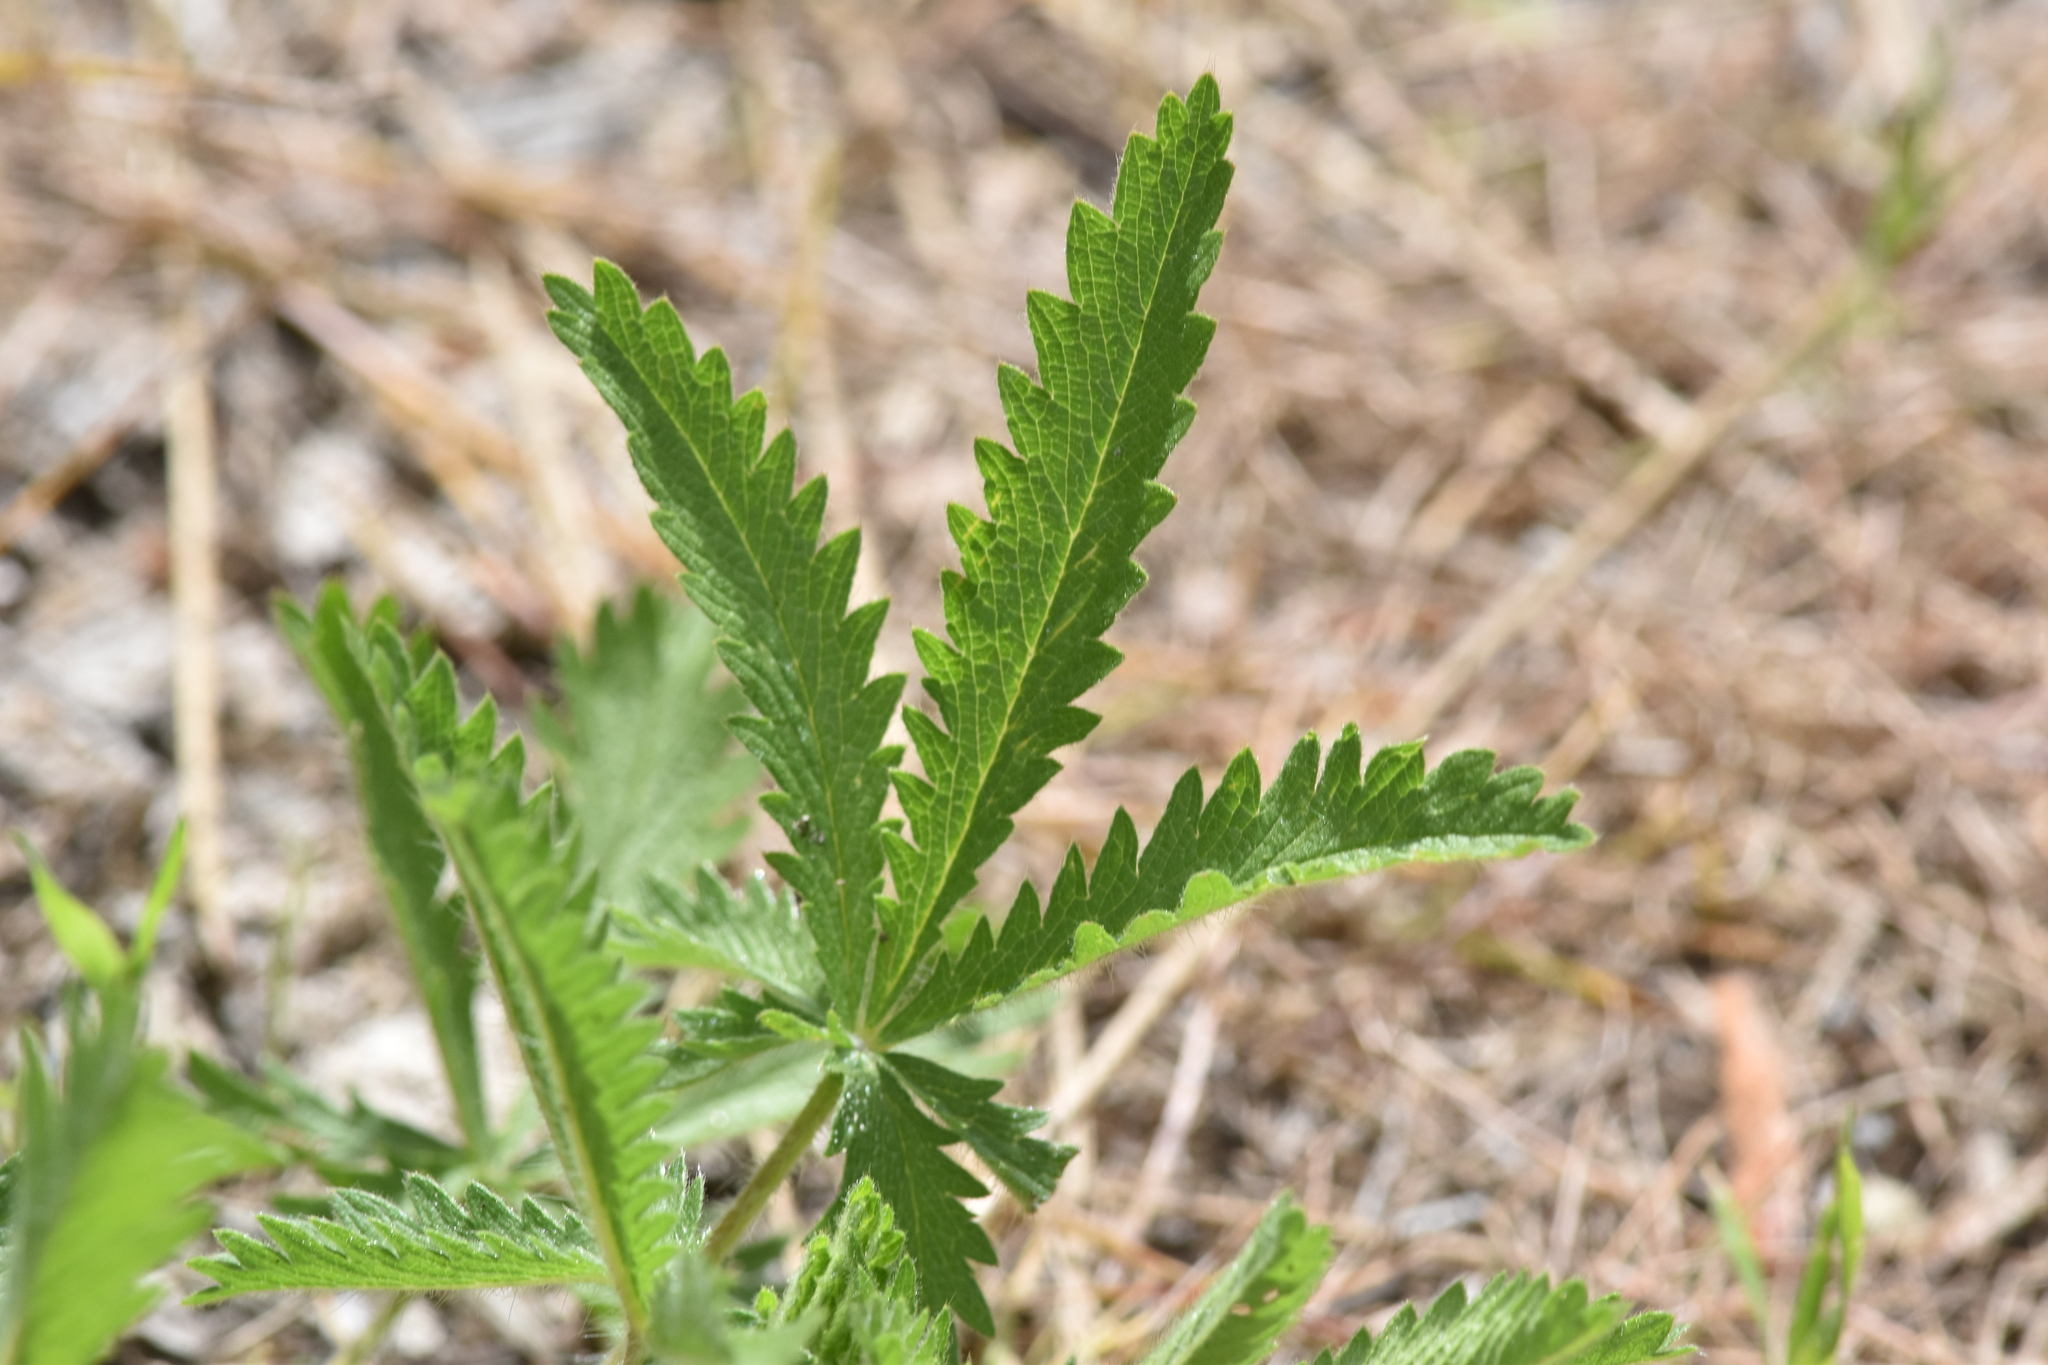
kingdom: Plantae
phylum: Tracheophyta
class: Magnoliopsida
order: Rosales
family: Rosaceae
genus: Potentilla
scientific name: Potentilla recta
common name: Sulphur cinquefoil
